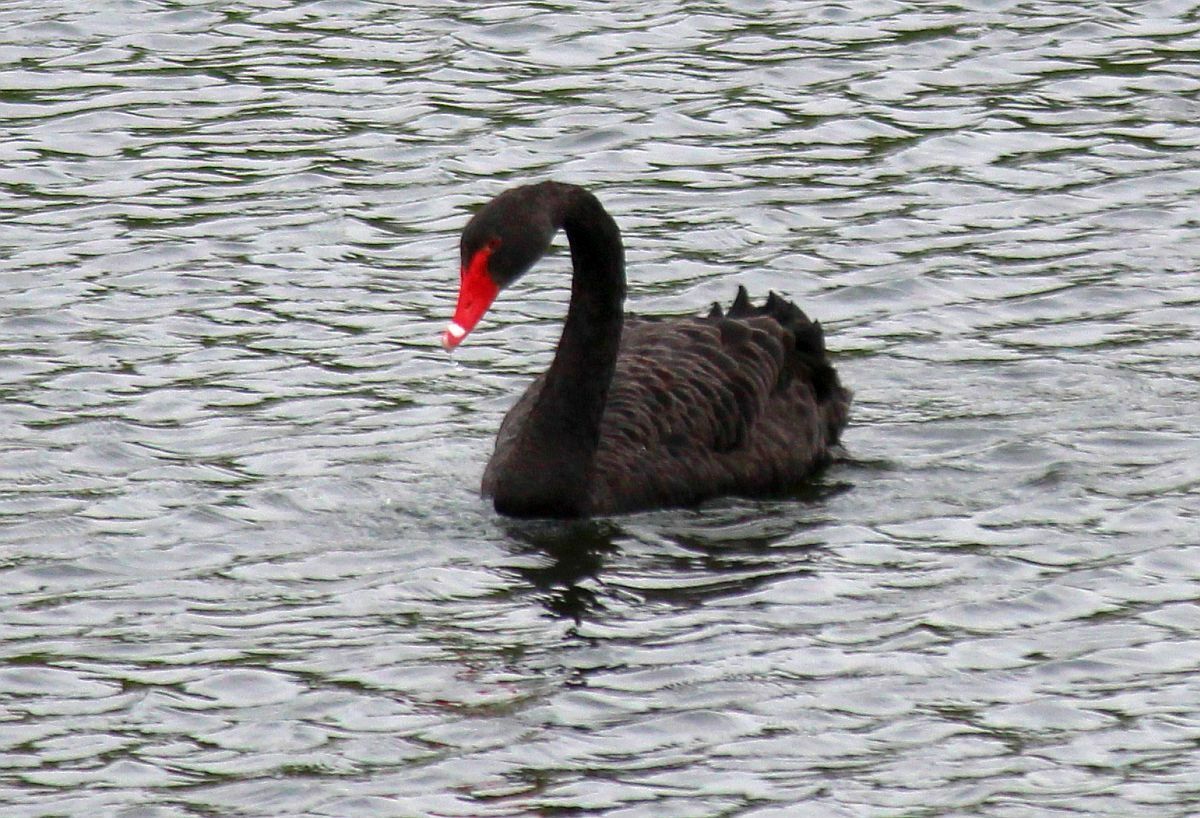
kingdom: Animalia
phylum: Chordata
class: Aves
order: Anseriformes
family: Anatidae
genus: Cygnus
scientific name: Cygnus atratus
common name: Black swan
